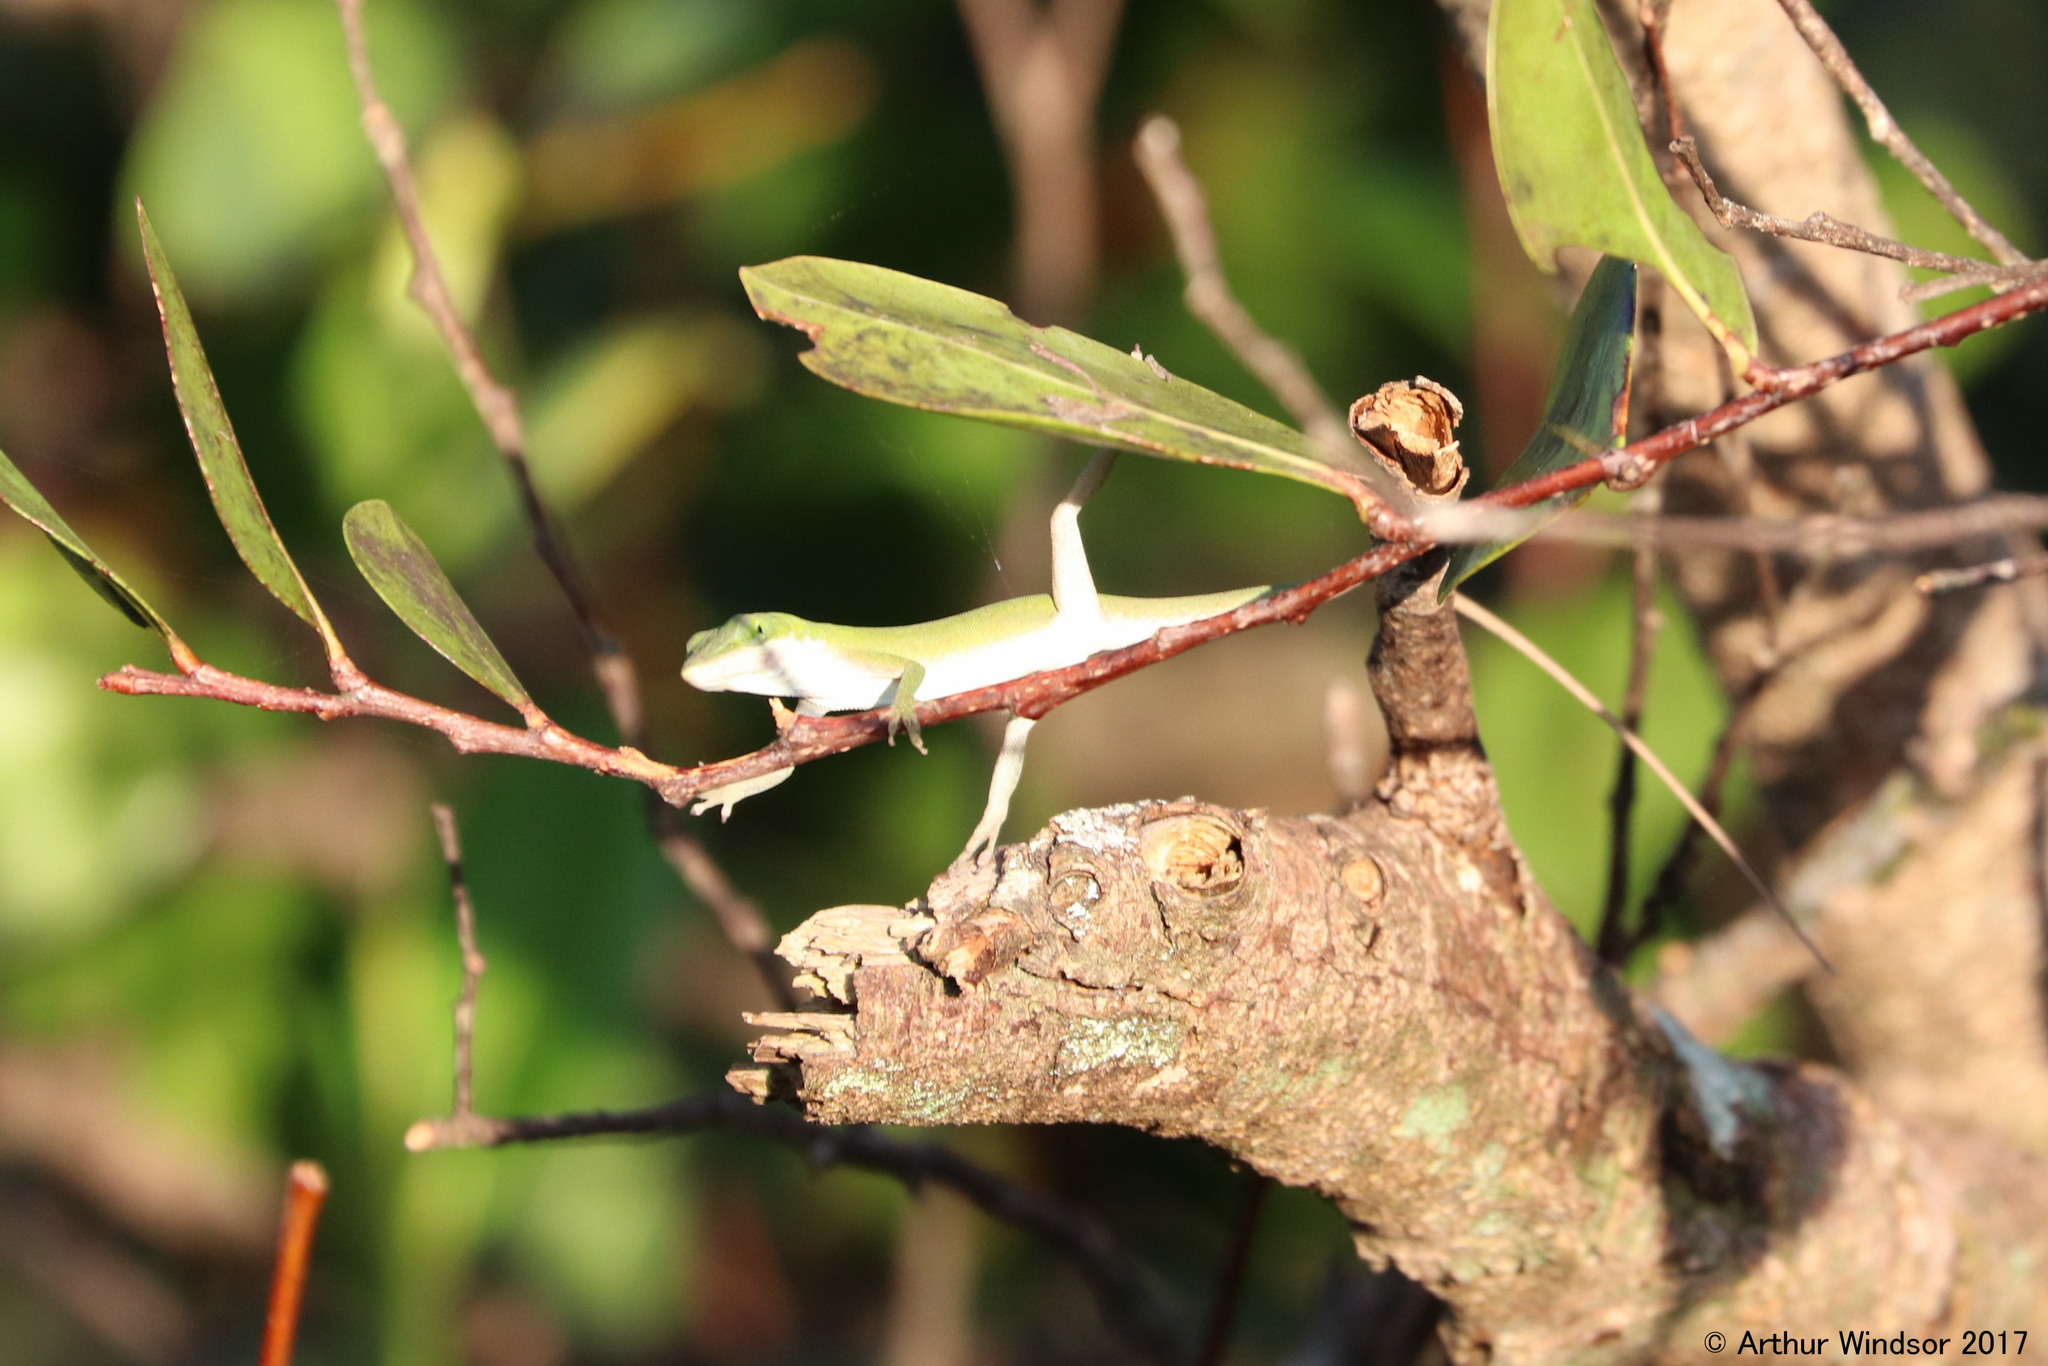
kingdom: Animalia
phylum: Chordata
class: Squamata
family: Dactyloidae
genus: Anolis
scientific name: Anolis carolinensis
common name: Green anole
